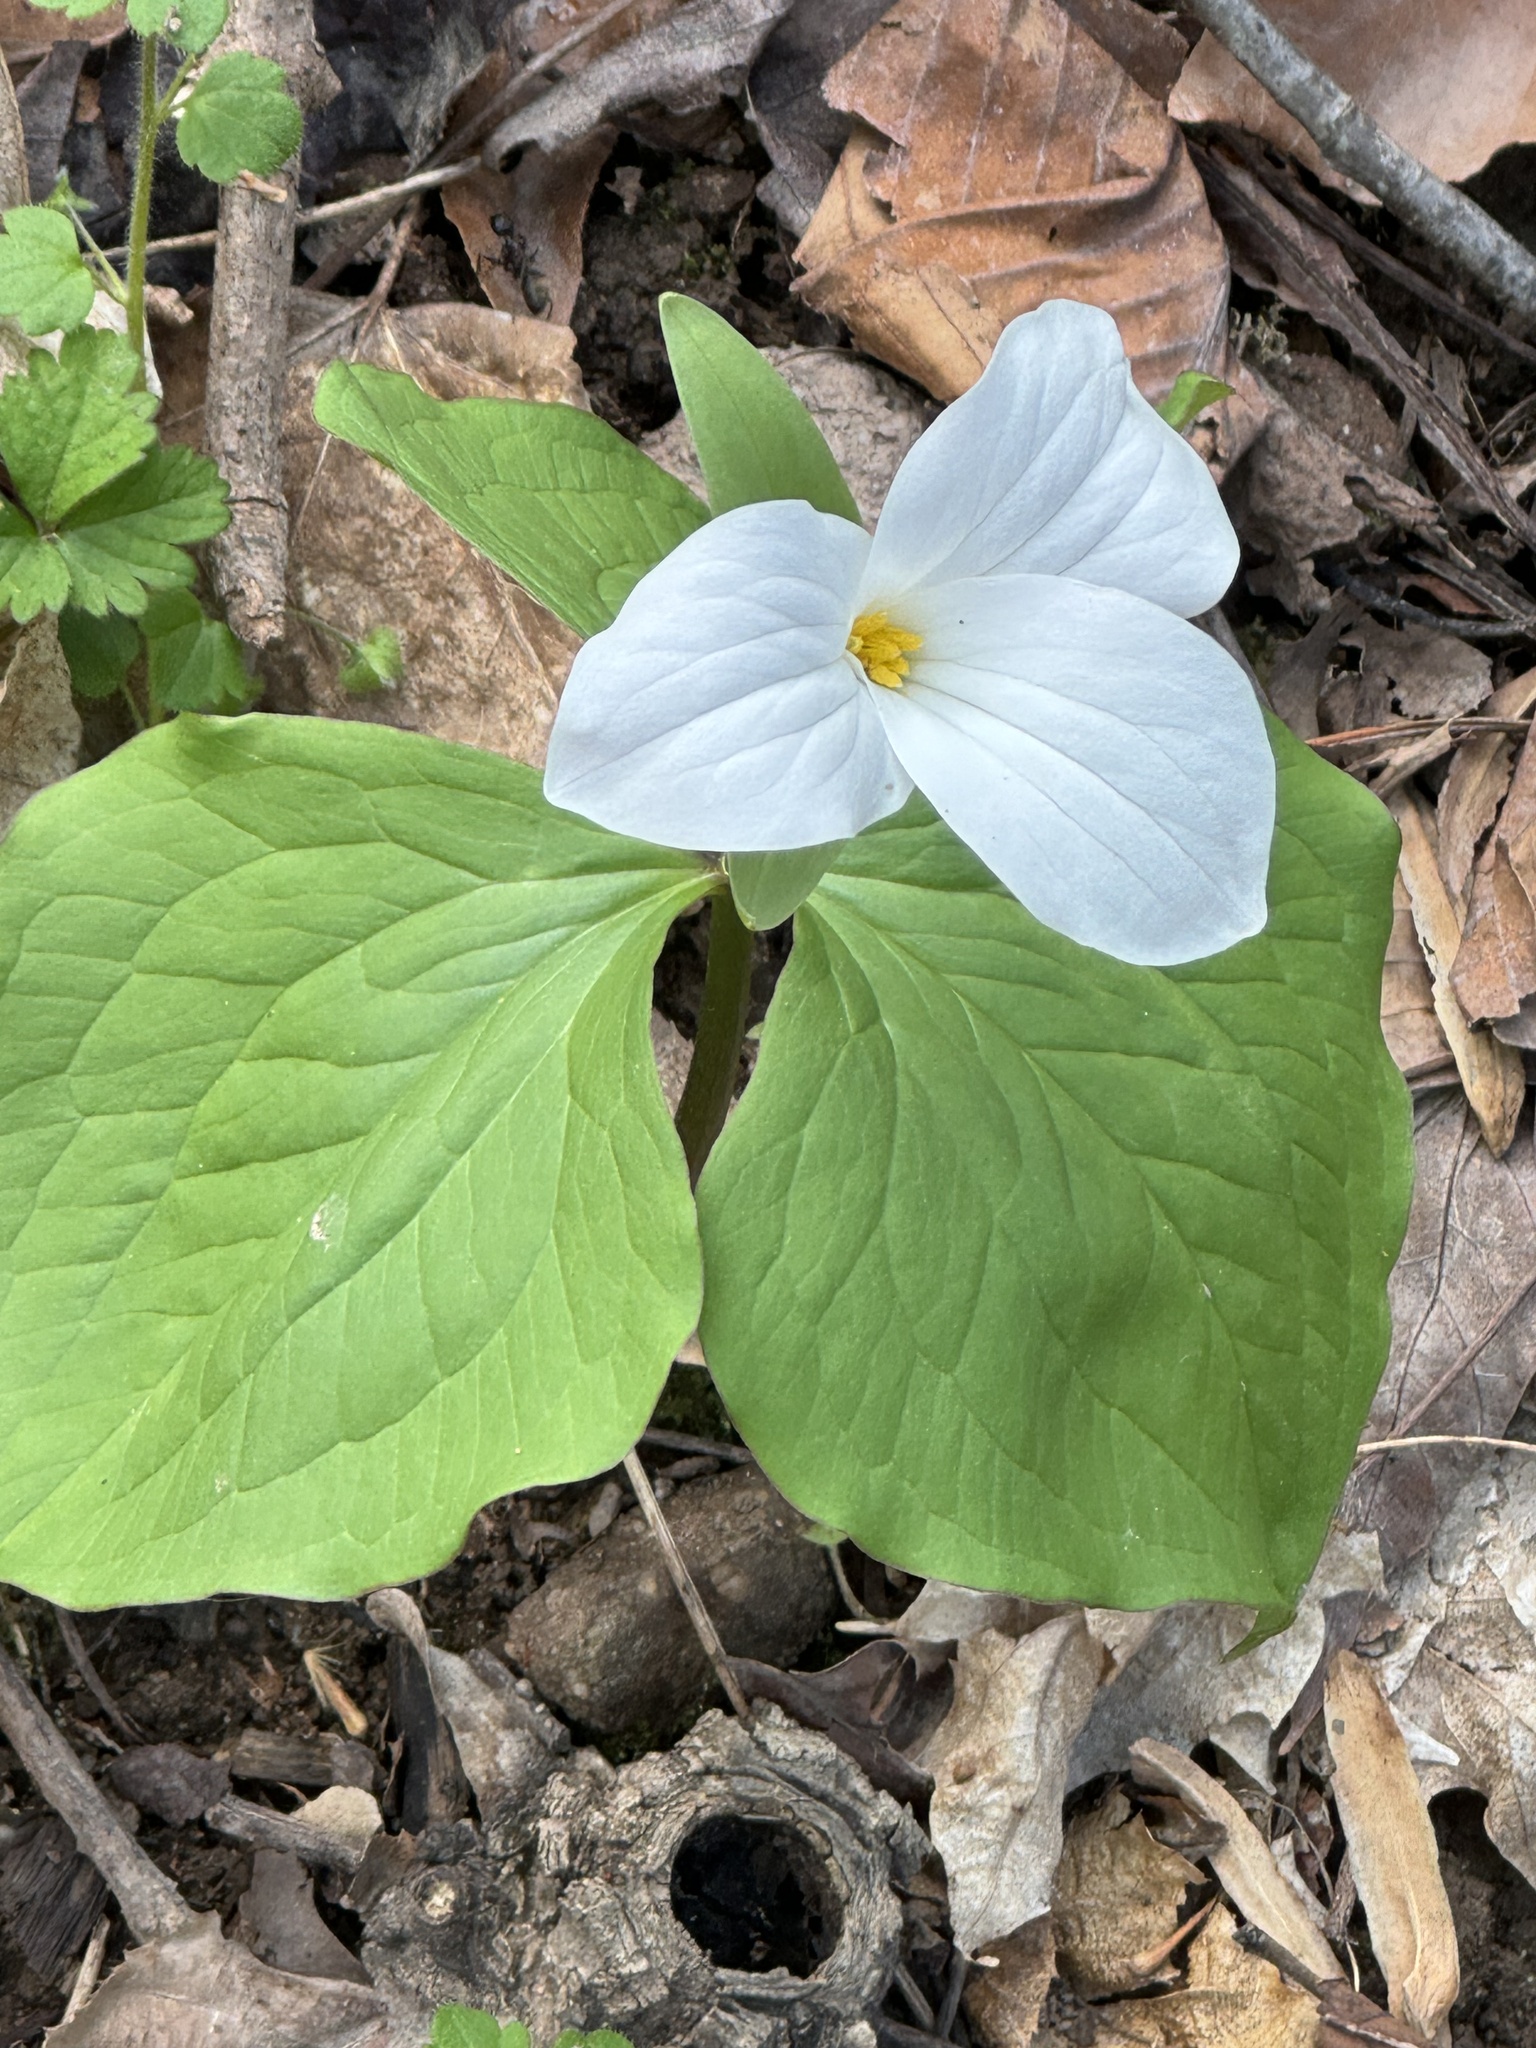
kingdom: Plantae
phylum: Tracheophyta
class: Liliopsida
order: Liliales
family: Melanthiaceae
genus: Trillium
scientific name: Trillium grandiflorum
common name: Great white trillium
